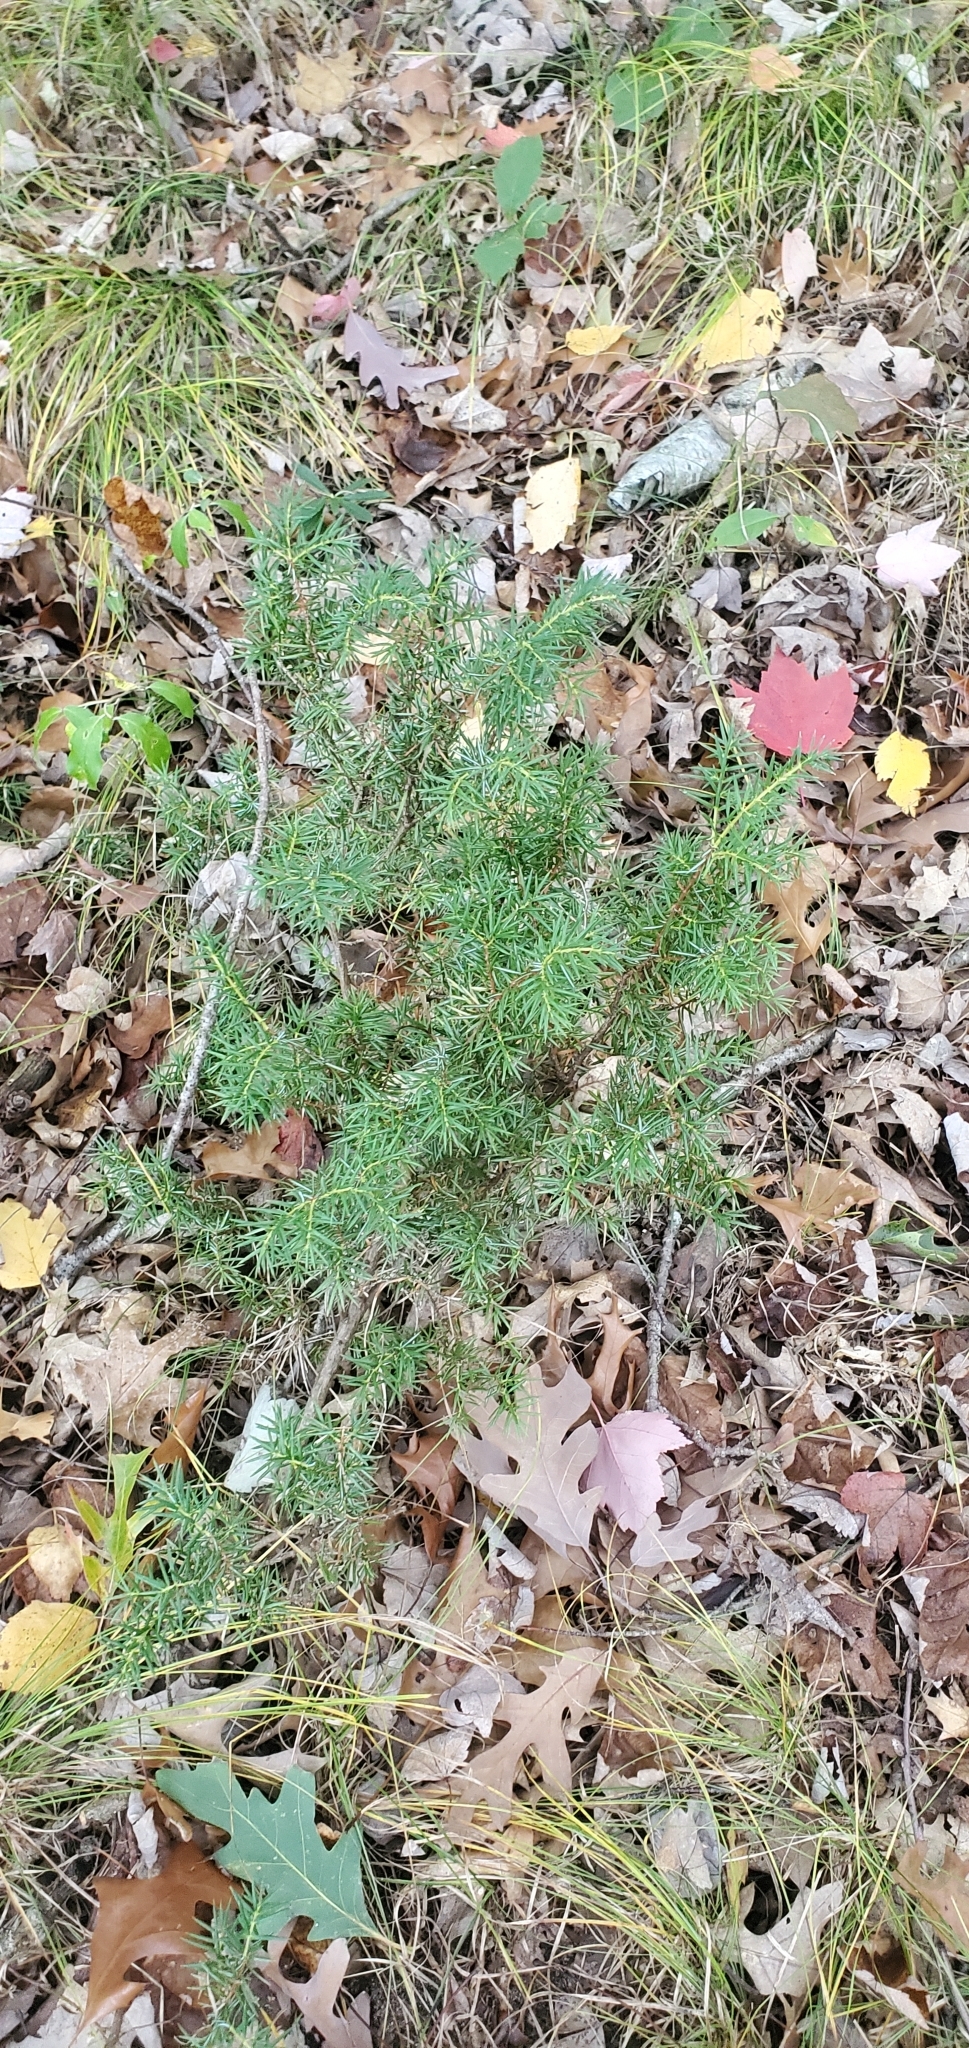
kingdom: Plantae
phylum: Tracheophyta
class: Pinopsida
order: Pinales
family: Cupressaceae
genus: Juniperus
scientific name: Juniperus virginiana
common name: Red juniper
